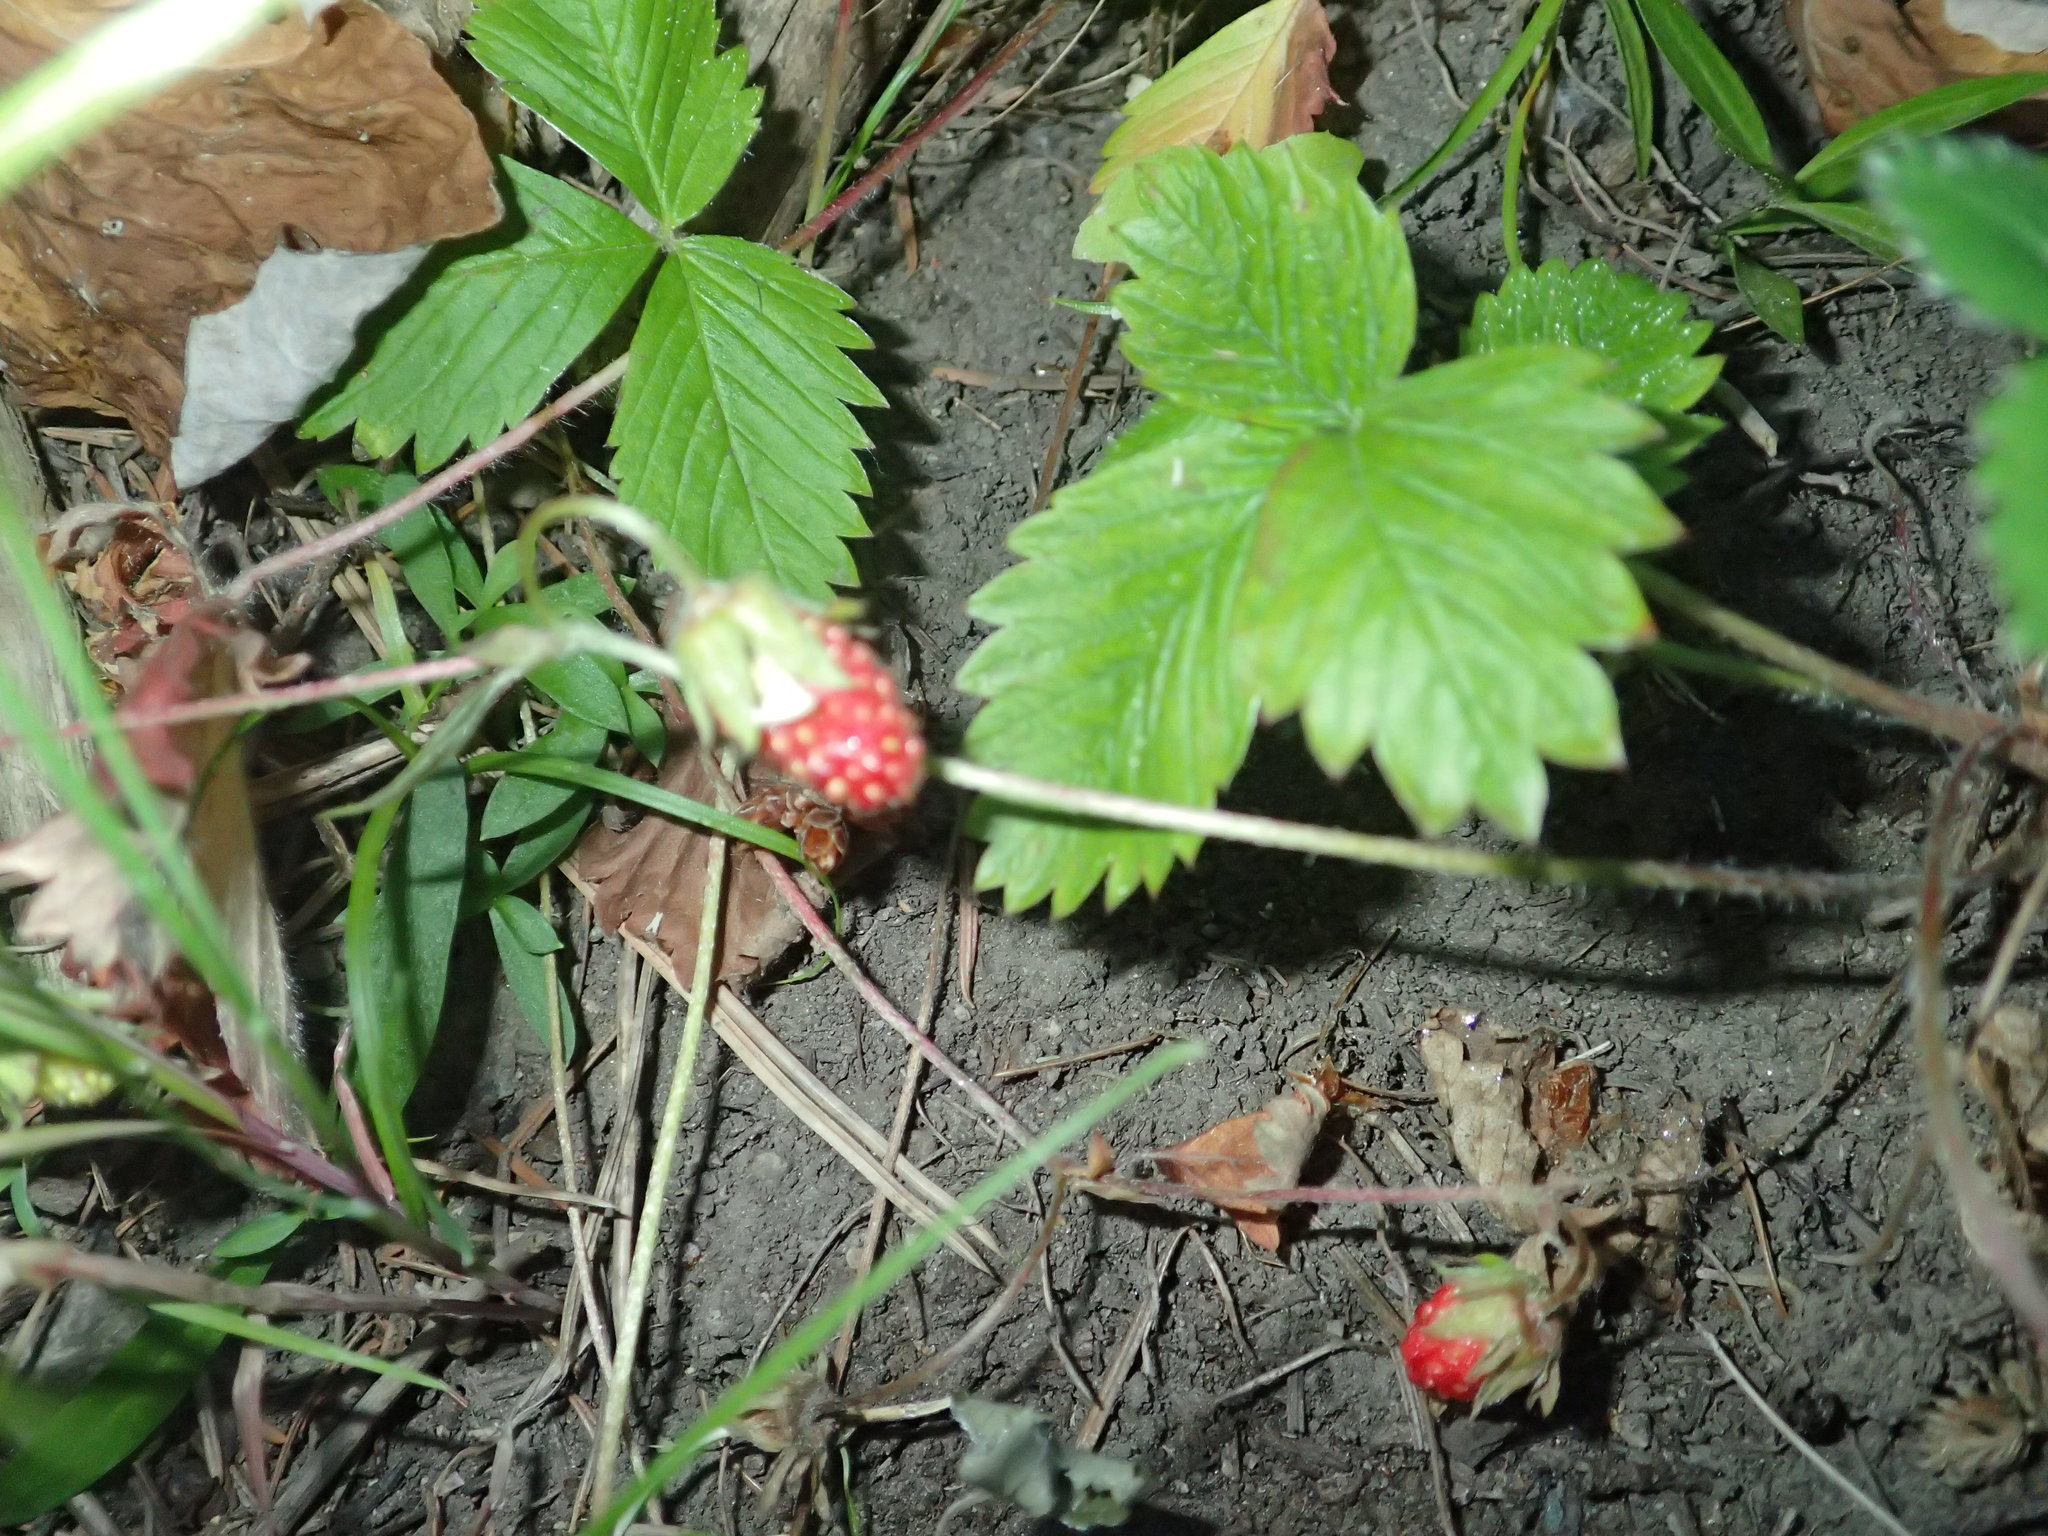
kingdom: Plantae
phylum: Tracheophyta
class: Magnoliopsida
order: Rosales
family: Rosaceae
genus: Fragaria
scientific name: Fragaria vesca
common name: Wild strawberry
